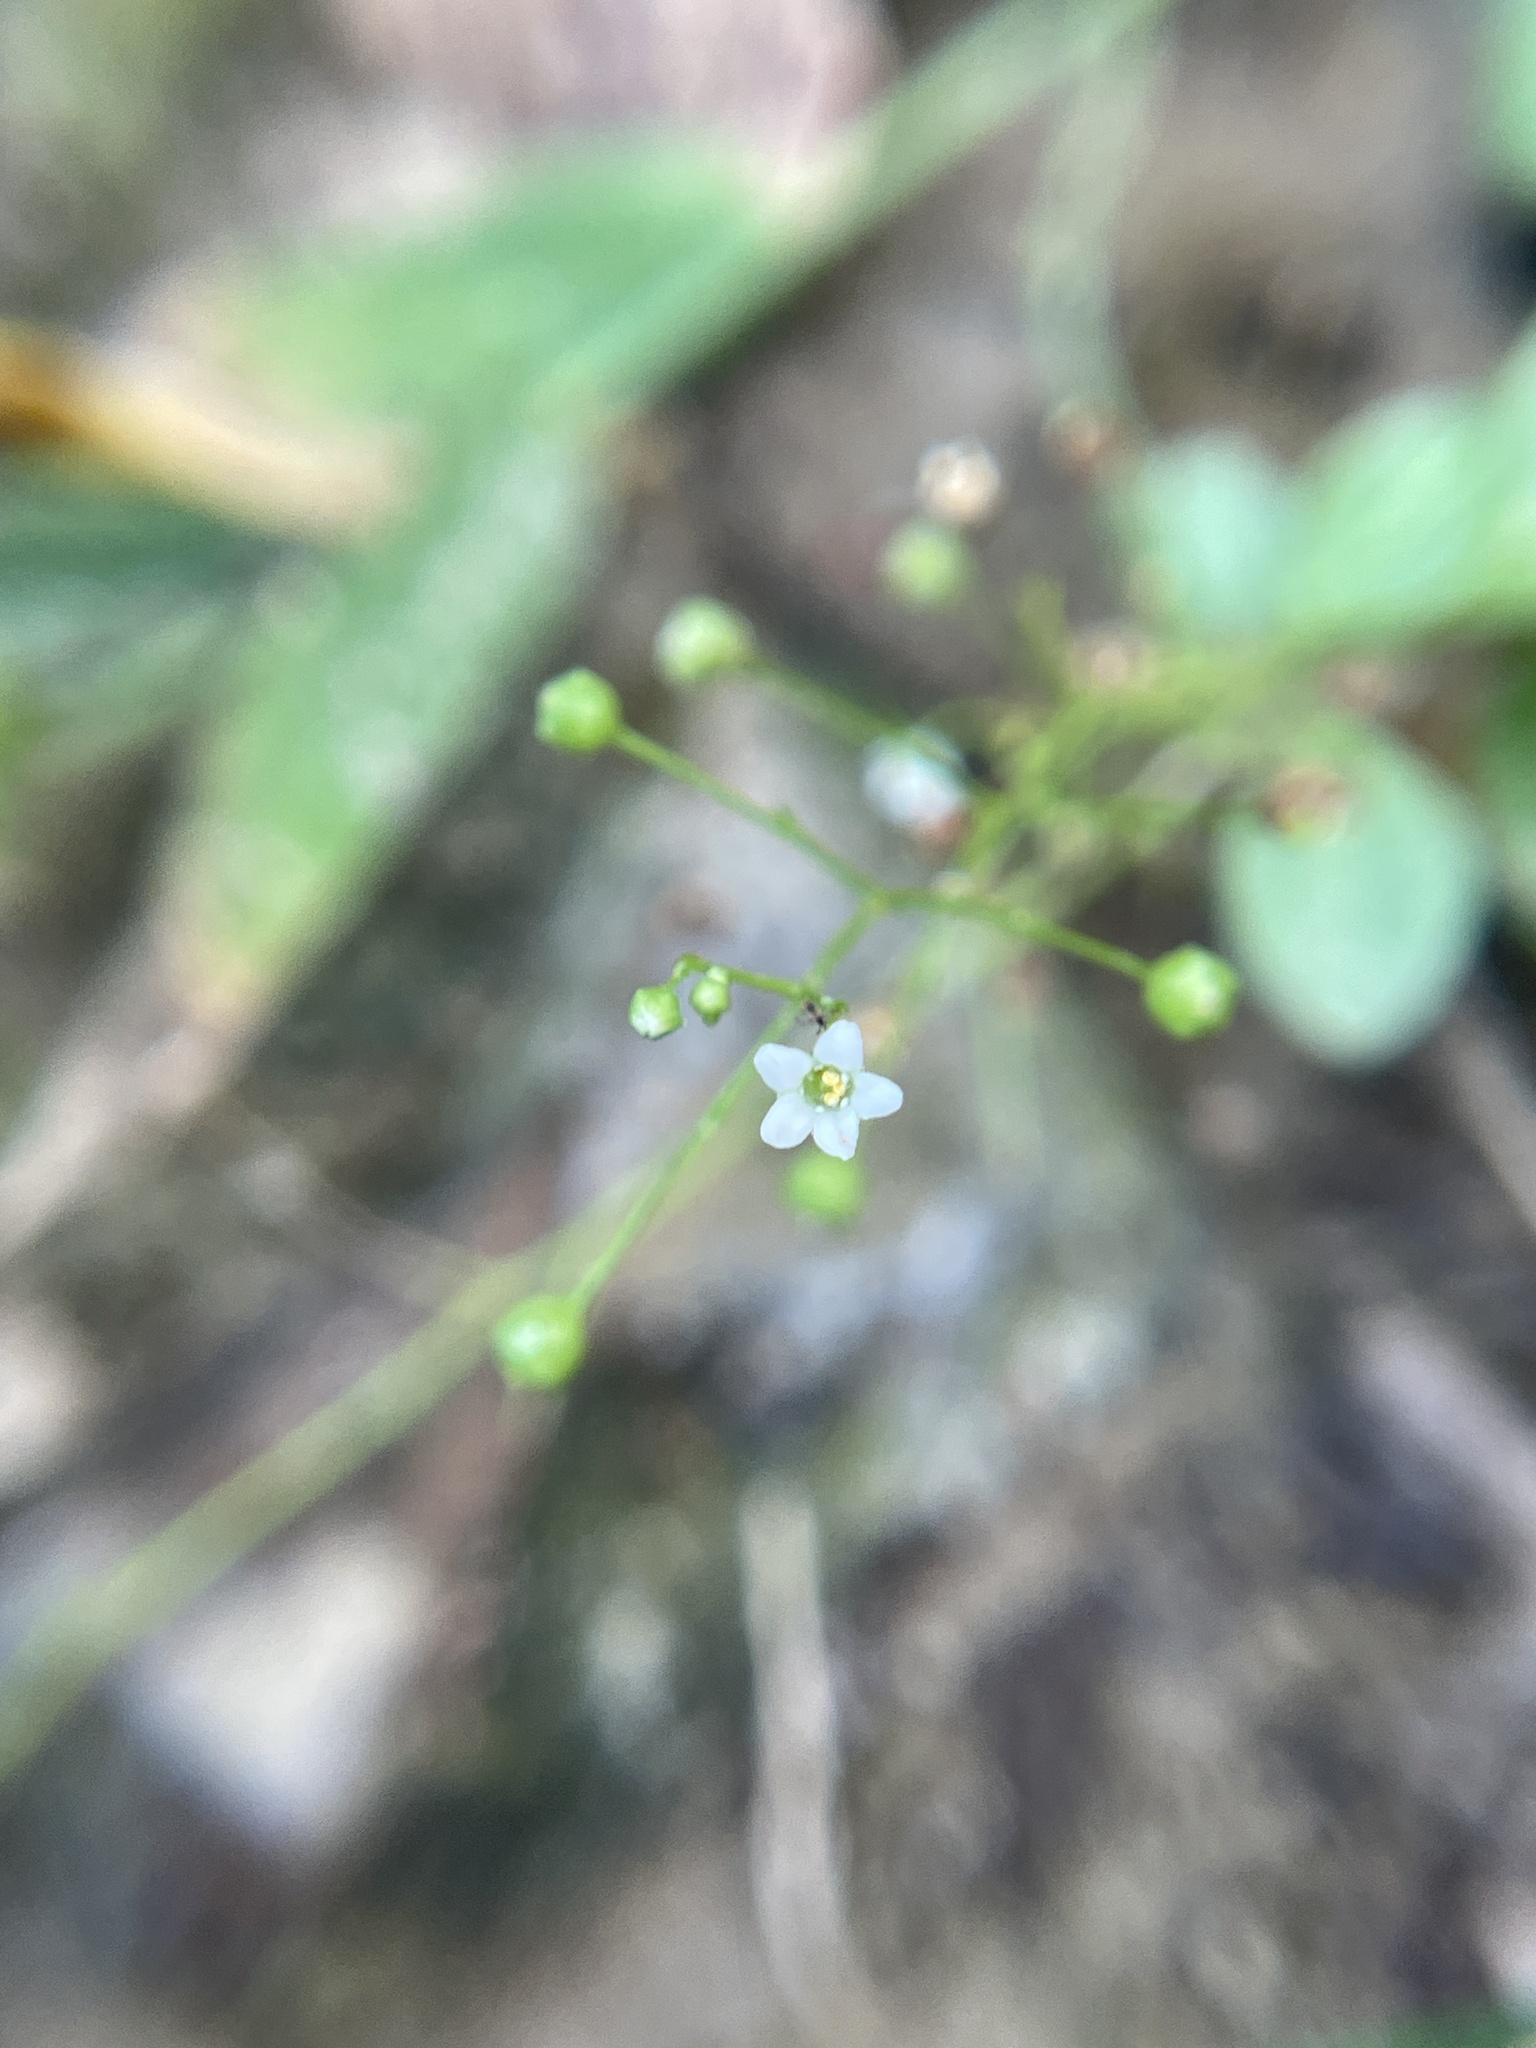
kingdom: Plantae
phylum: Tracheophyta
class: Magnoliopsida
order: Ericales
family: Primulaceae
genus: Samolus
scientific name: Samolus parviflorus
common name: False water pimpernel
